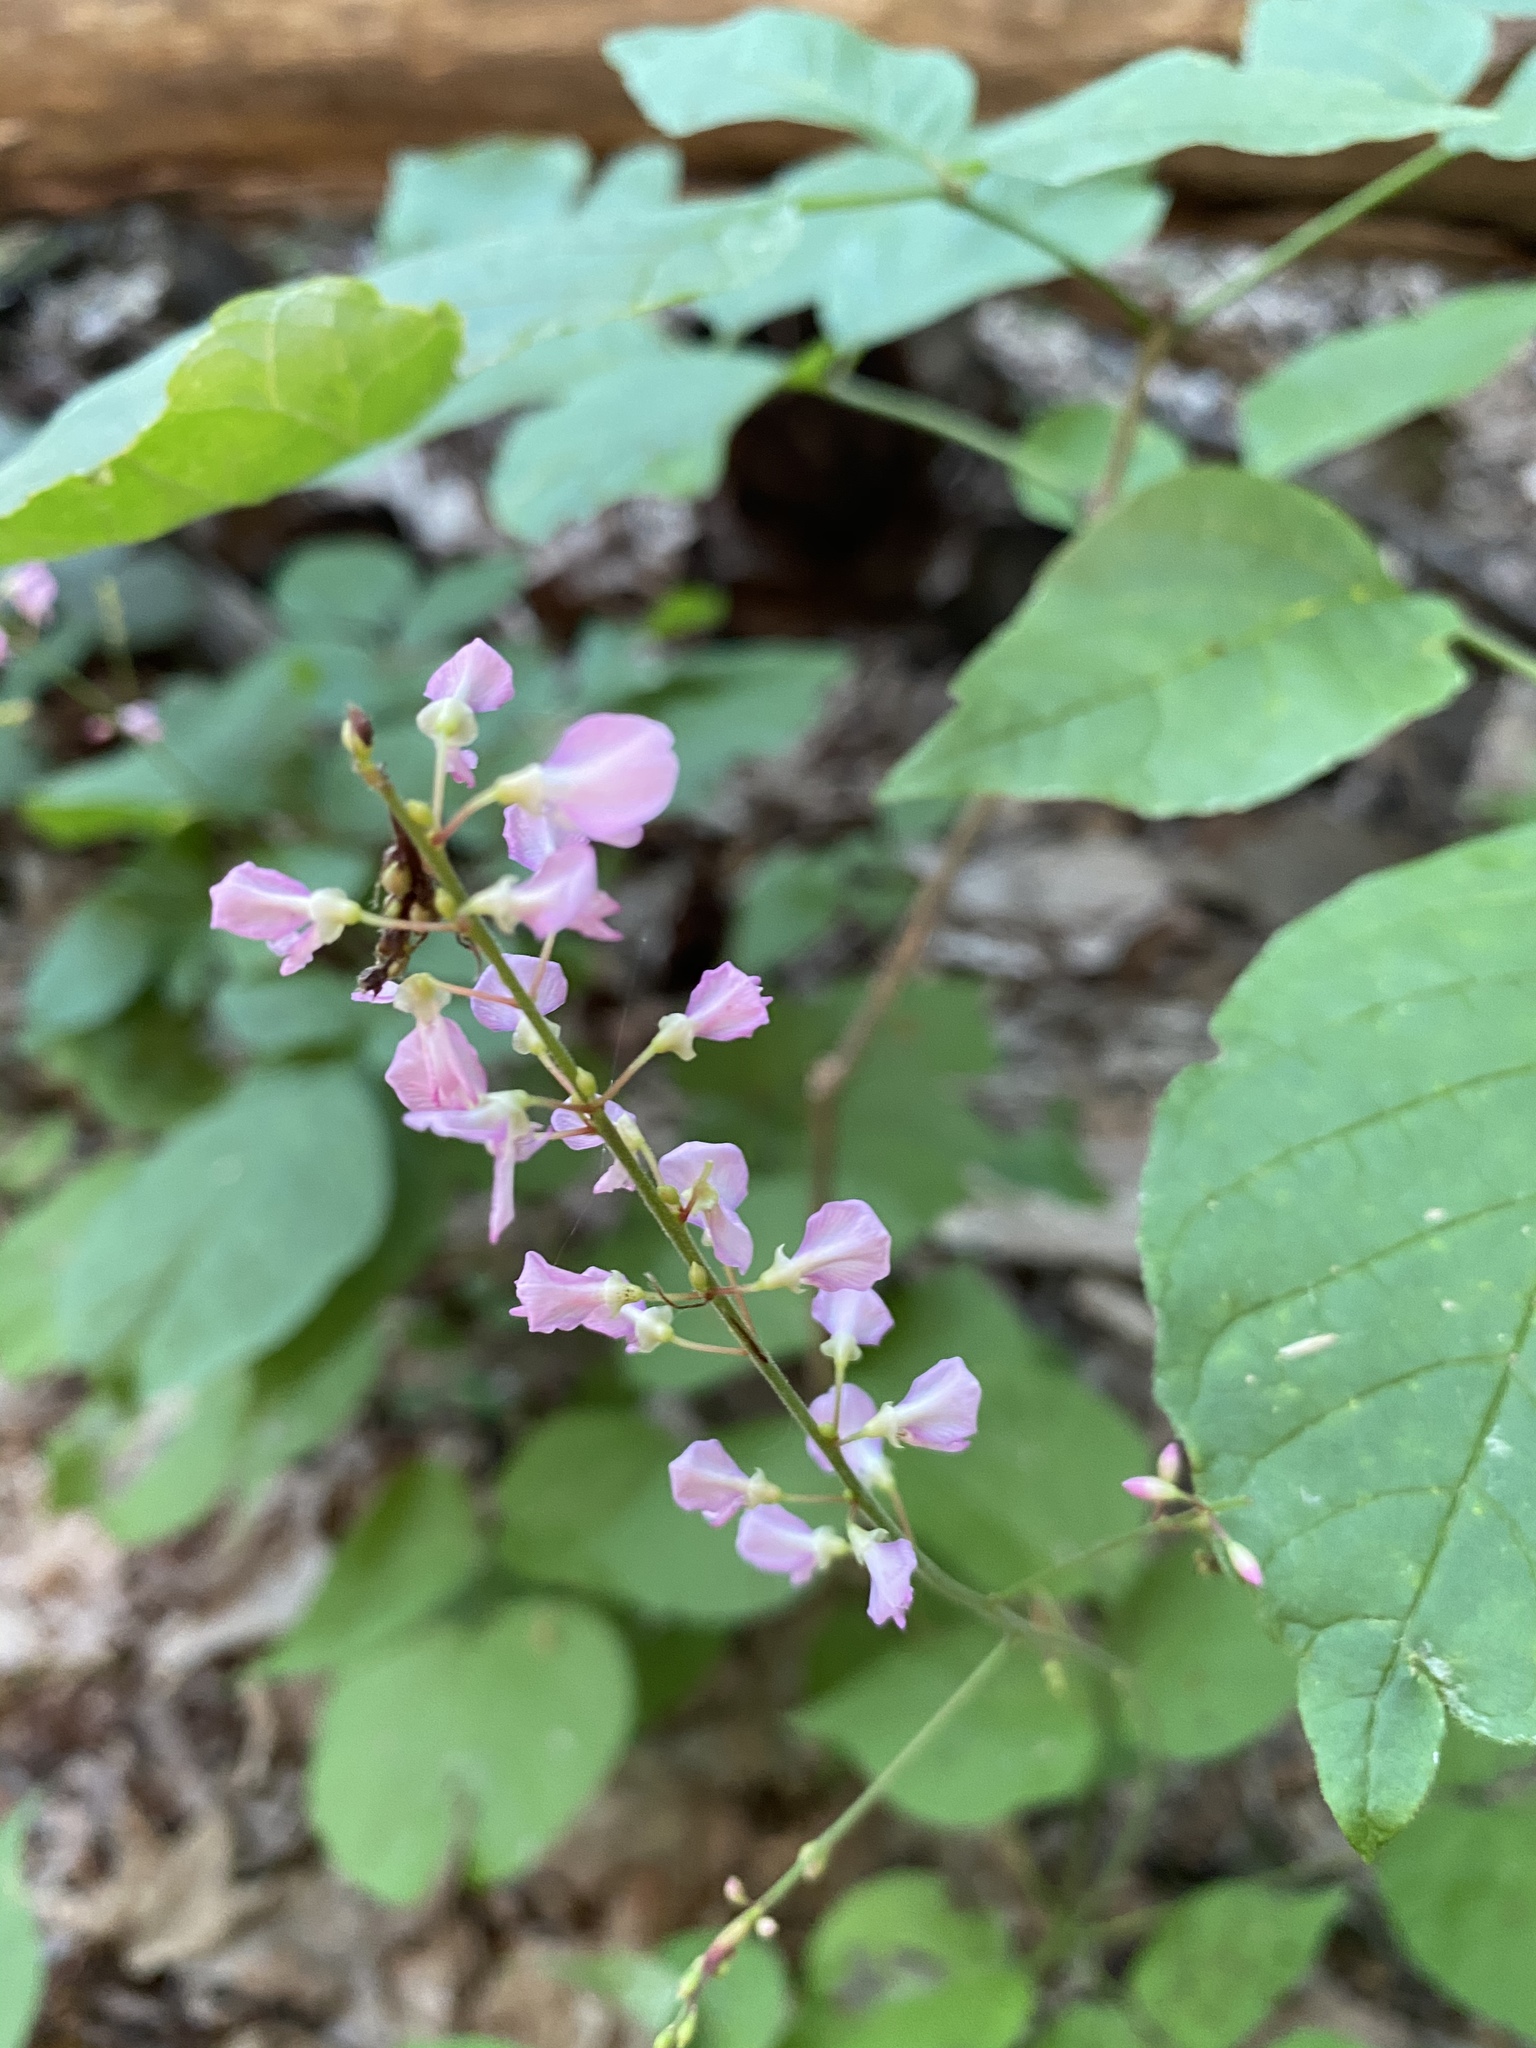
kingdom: Plantae
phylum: Tracheophyta
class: Magnoliopsida
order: Fabales
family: Fabaceae
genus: Hylodesmum
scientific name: Hylodesmum glutinosum
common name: Clustered-leaved tick-trefoil
